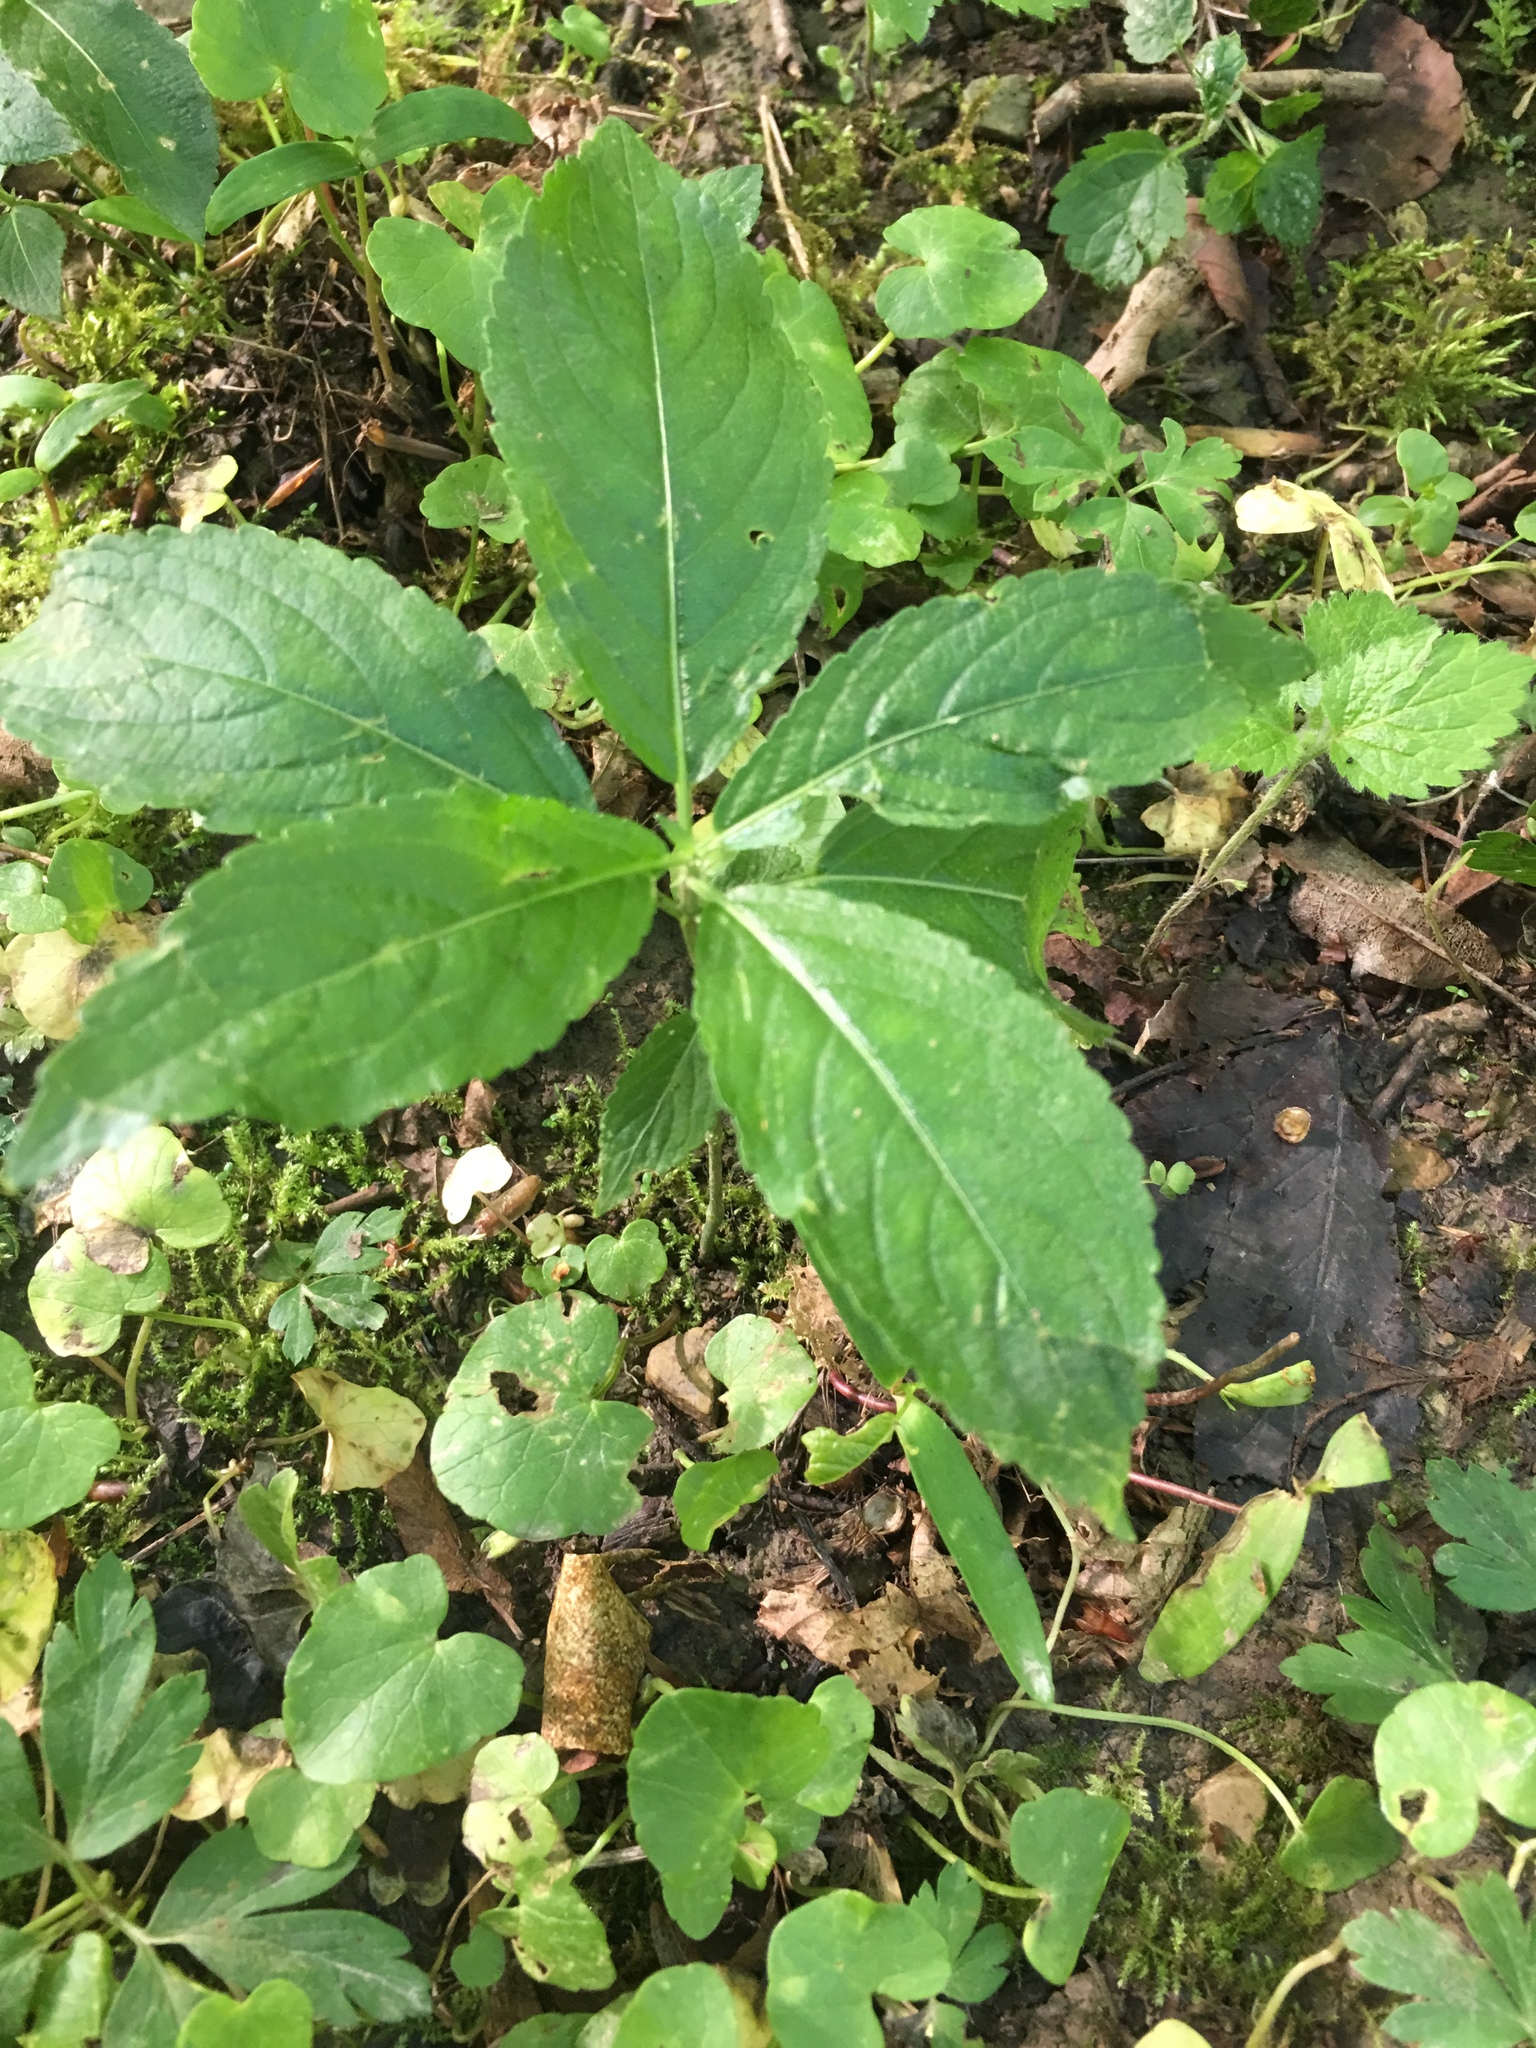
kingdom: Plantae
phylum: Tracheophyta
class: Magnoliopsida
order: Malpighiales
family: Euphorbiaceae
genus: Mercurialis
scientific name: Mercurialis perennis
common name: Dog mercury
